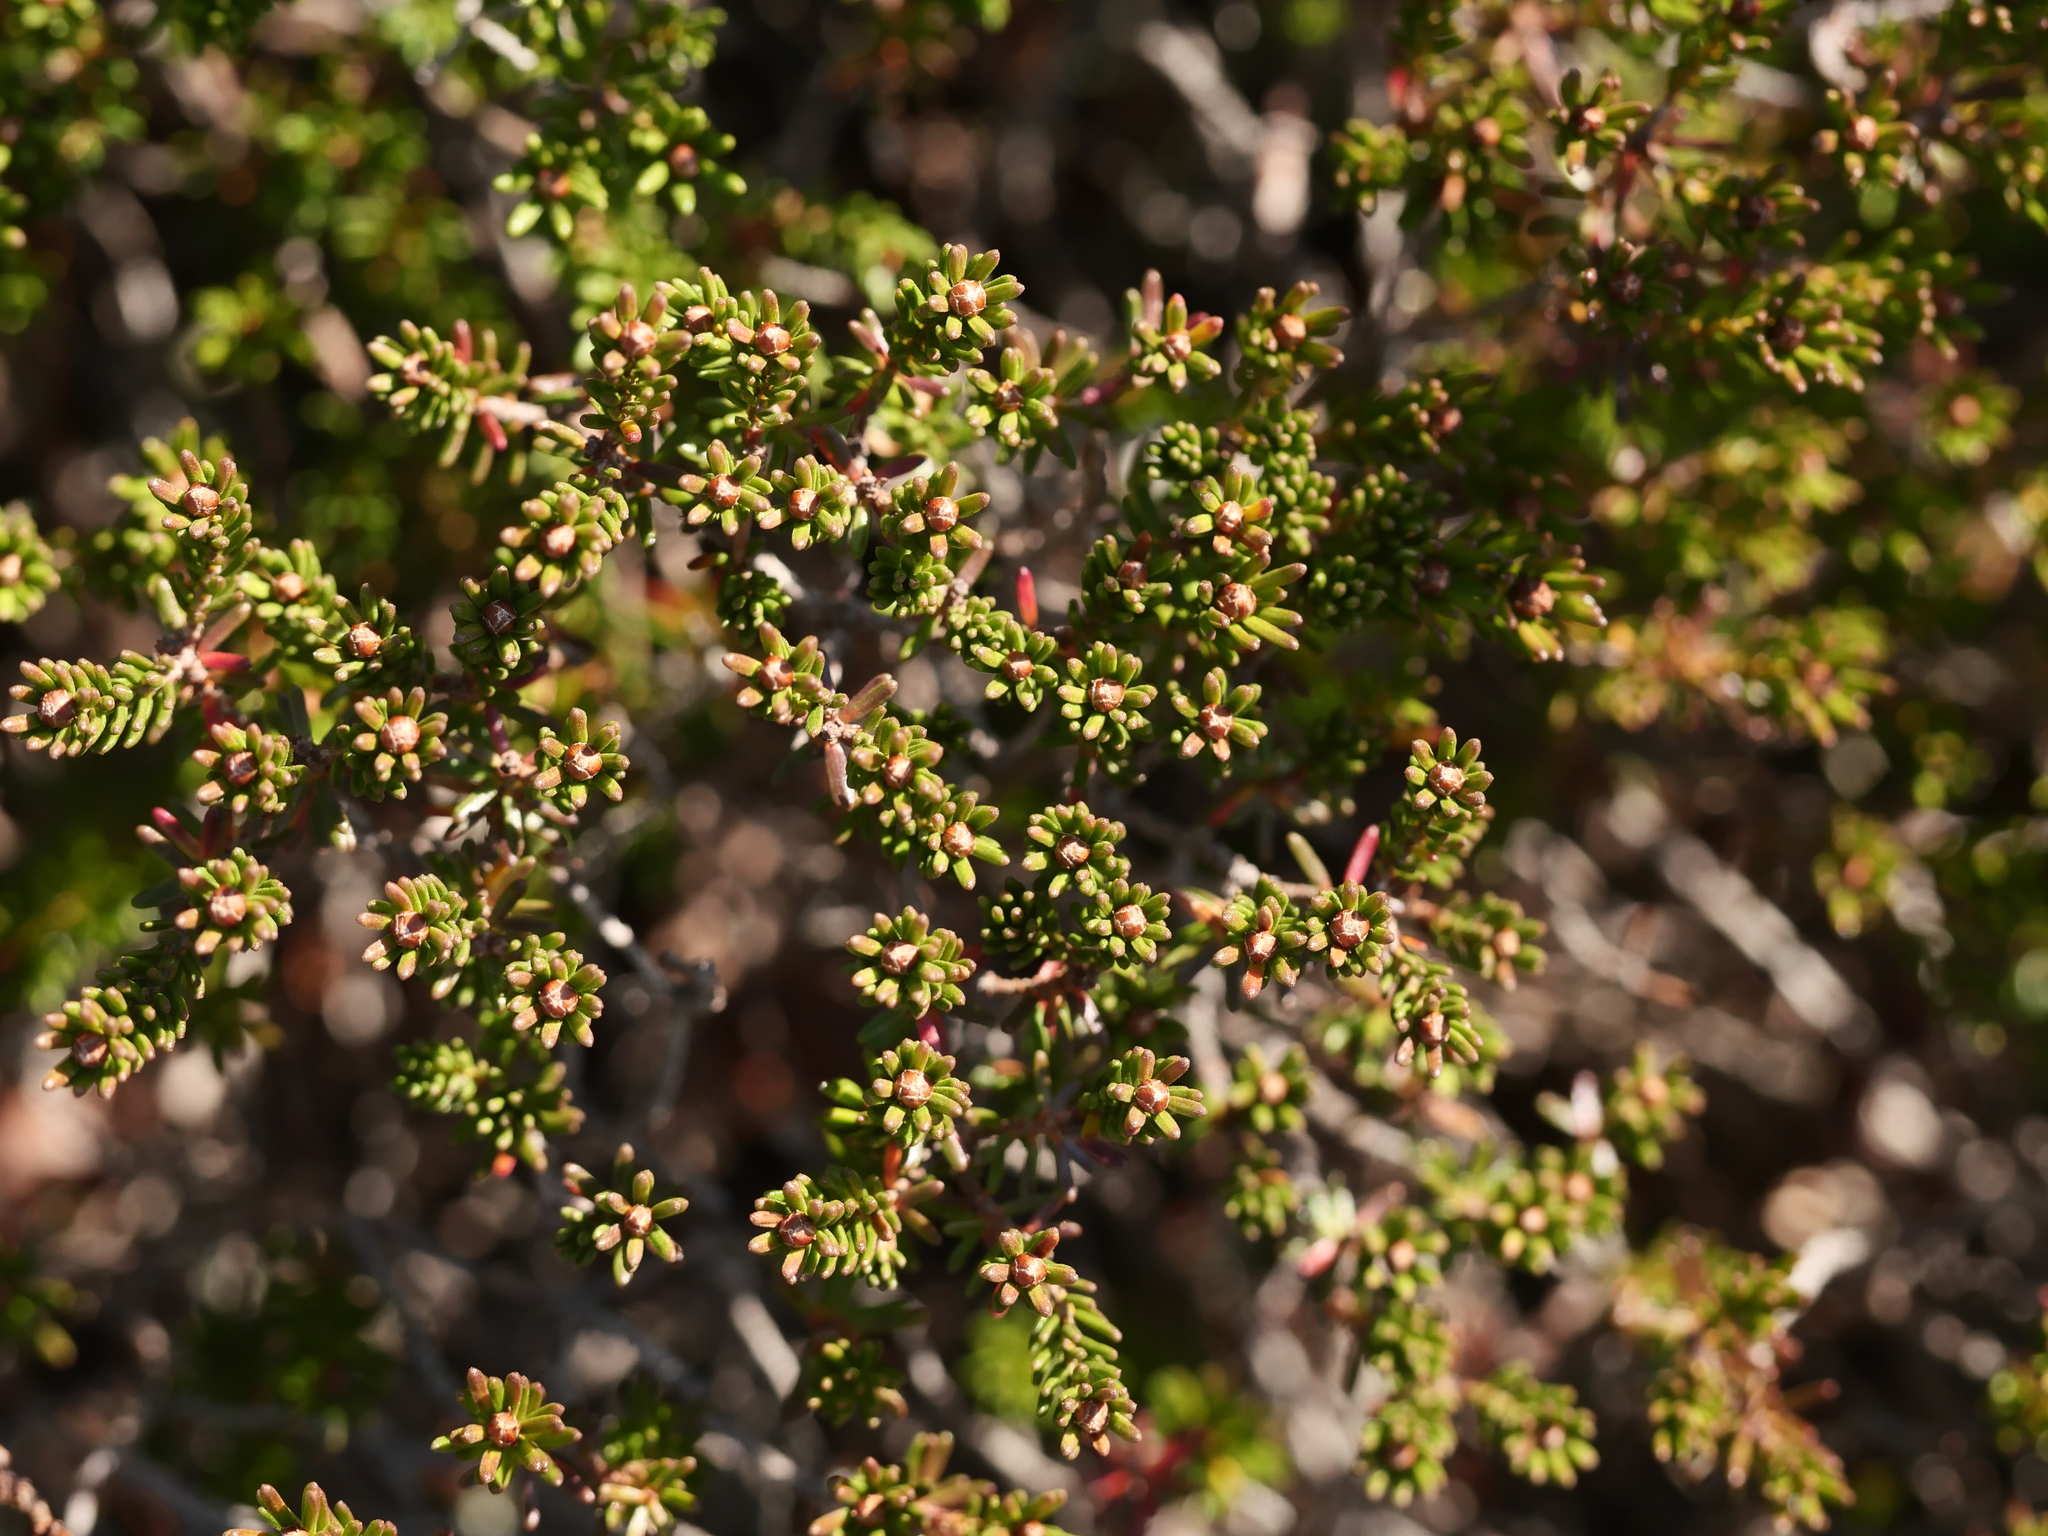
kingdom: Plantae
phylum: Tracheophyta
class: Magnoliopsida
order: Ericales
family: Ericaceae
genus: Corema
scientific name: Corema conradii
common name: Broom-crowberry
